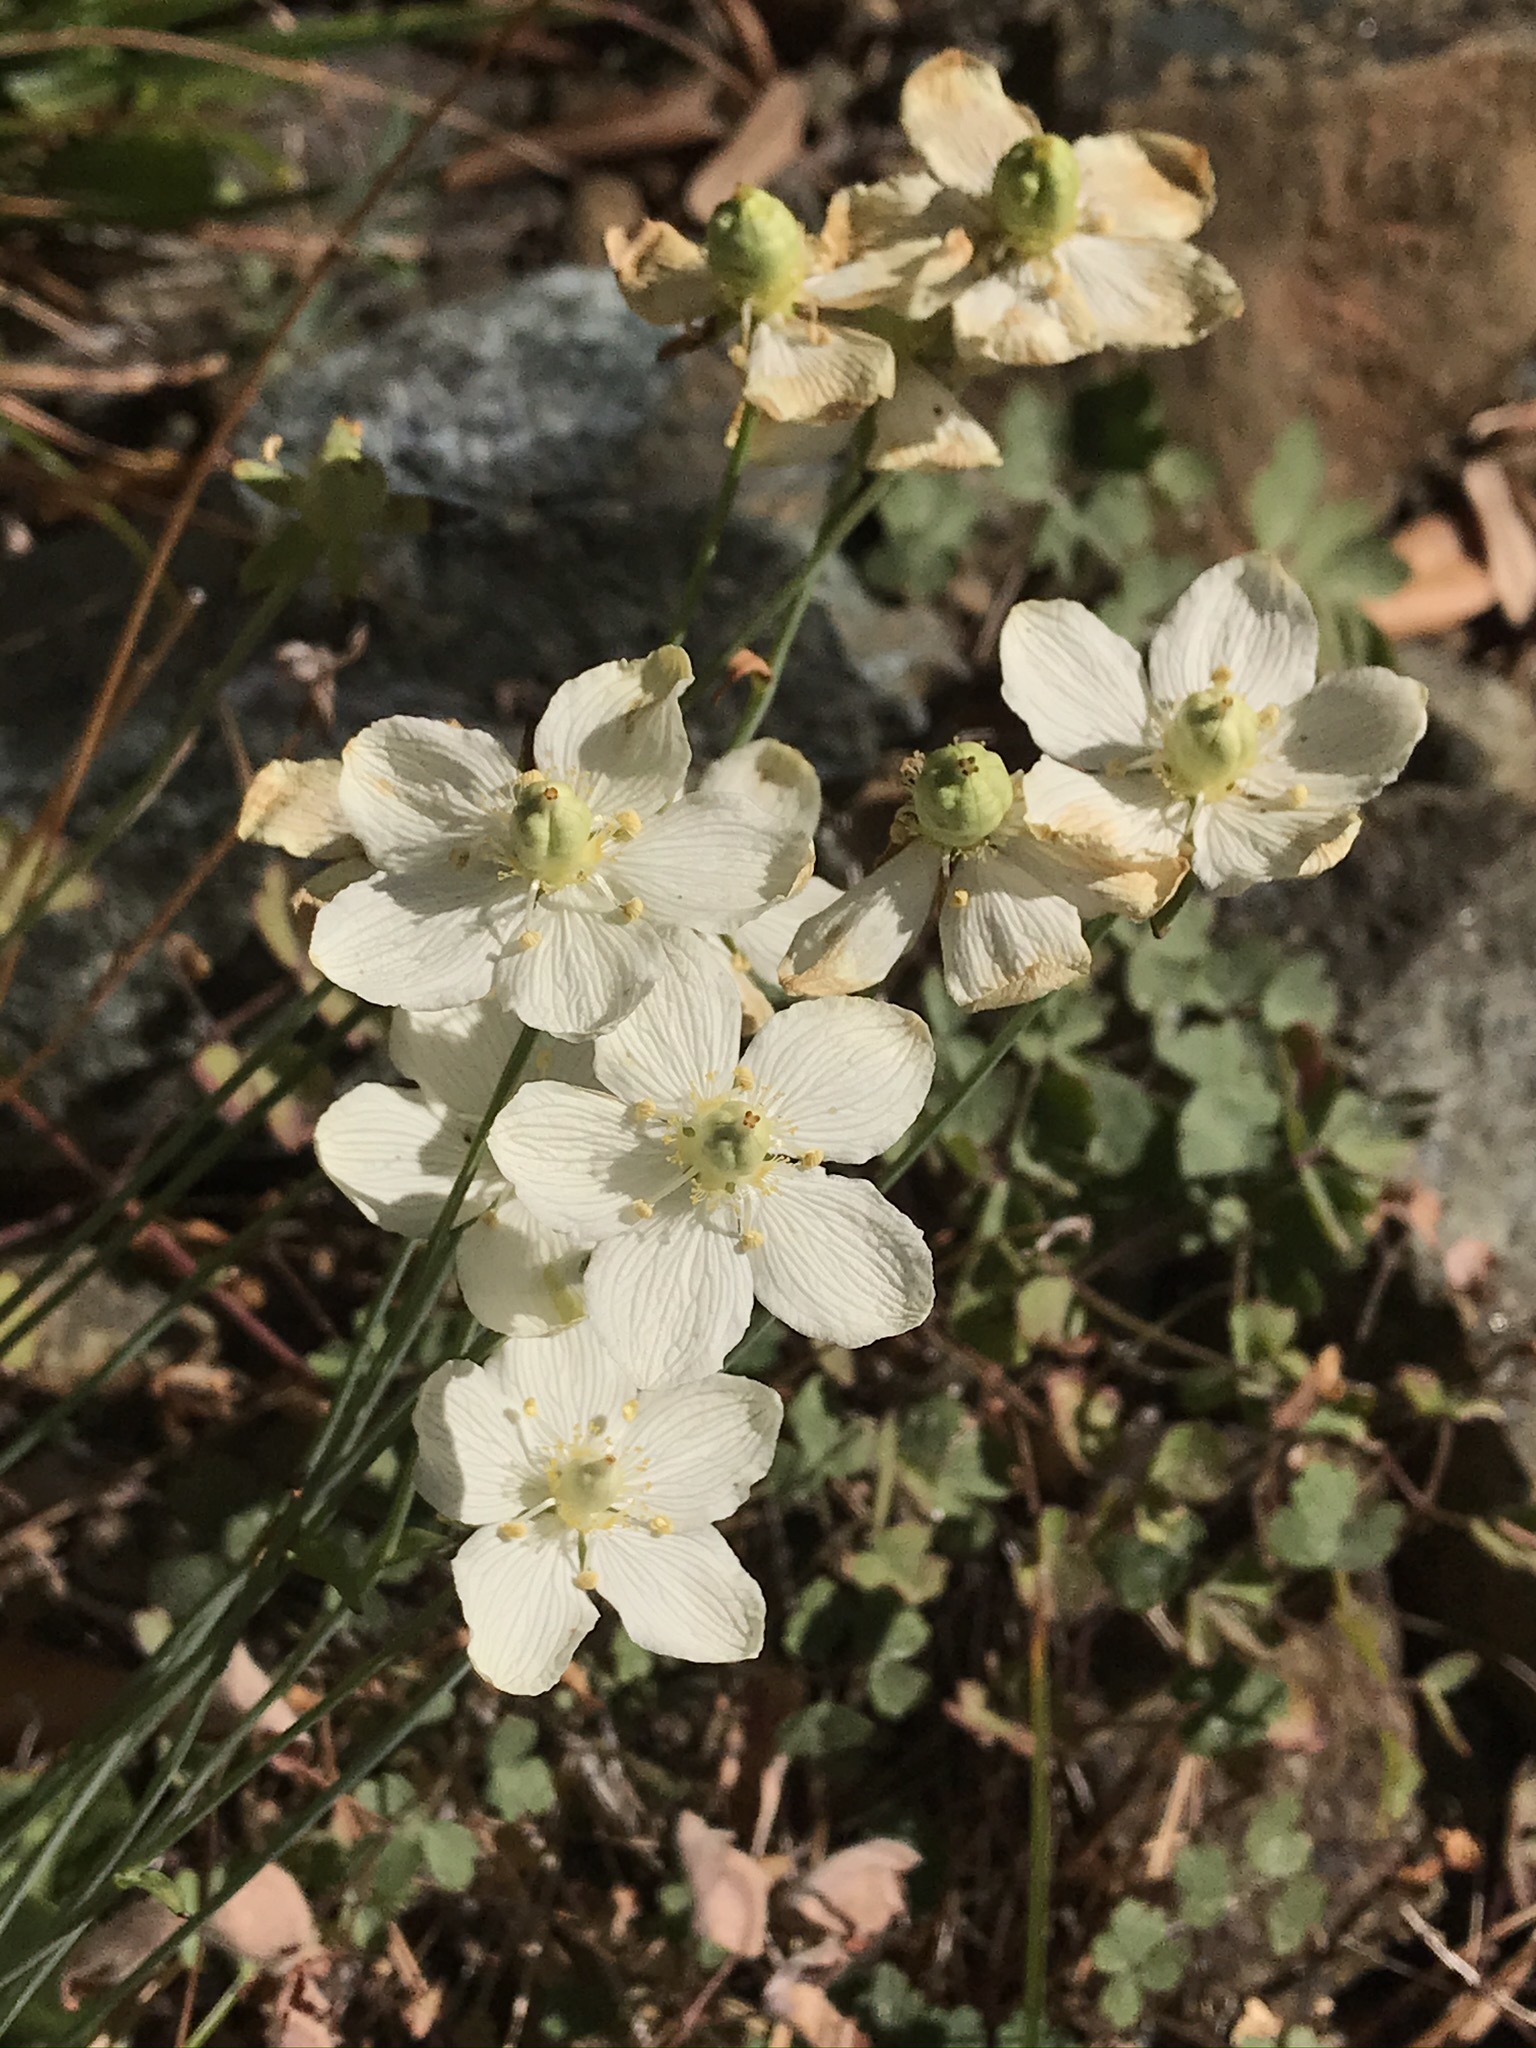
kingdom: Plantae
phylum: Tracheophyta
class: Magnoliopsida
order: Celastrales
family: Parnassiaceae
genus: Parnassia
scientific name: Parnassia palustris
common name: Grass-of-parnassus
